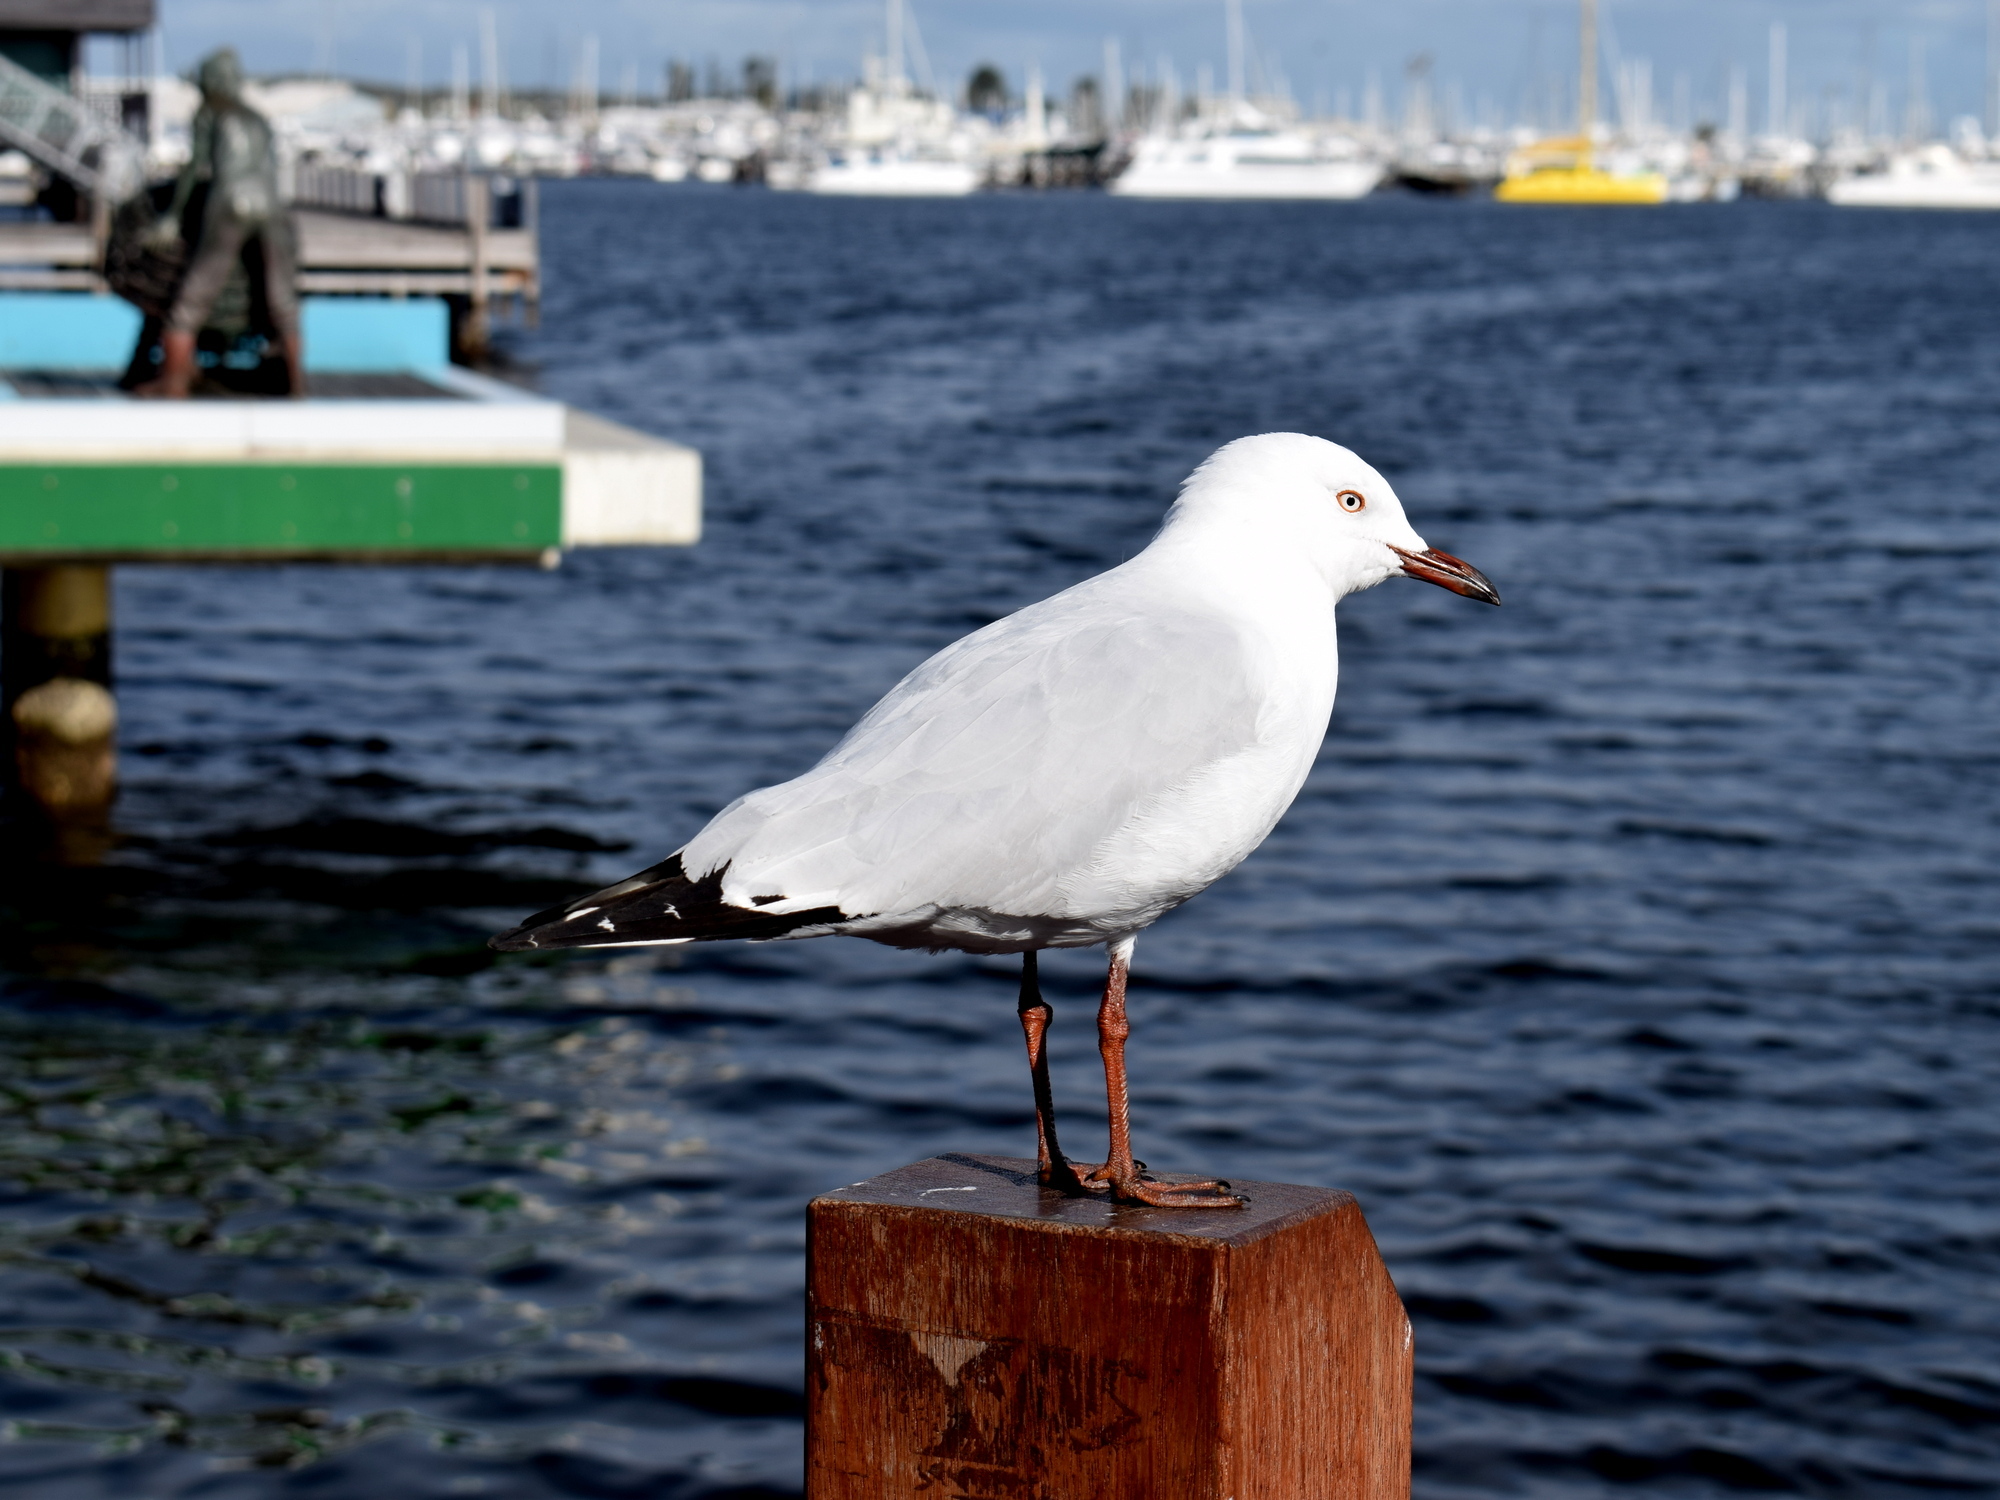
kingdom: Animalia
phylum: Chordata
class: Aves
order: Charadriiformes
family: Laridae
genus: Chroicocephalus
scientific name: Chroicocephalus novaehollandiae
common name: Silver gull
